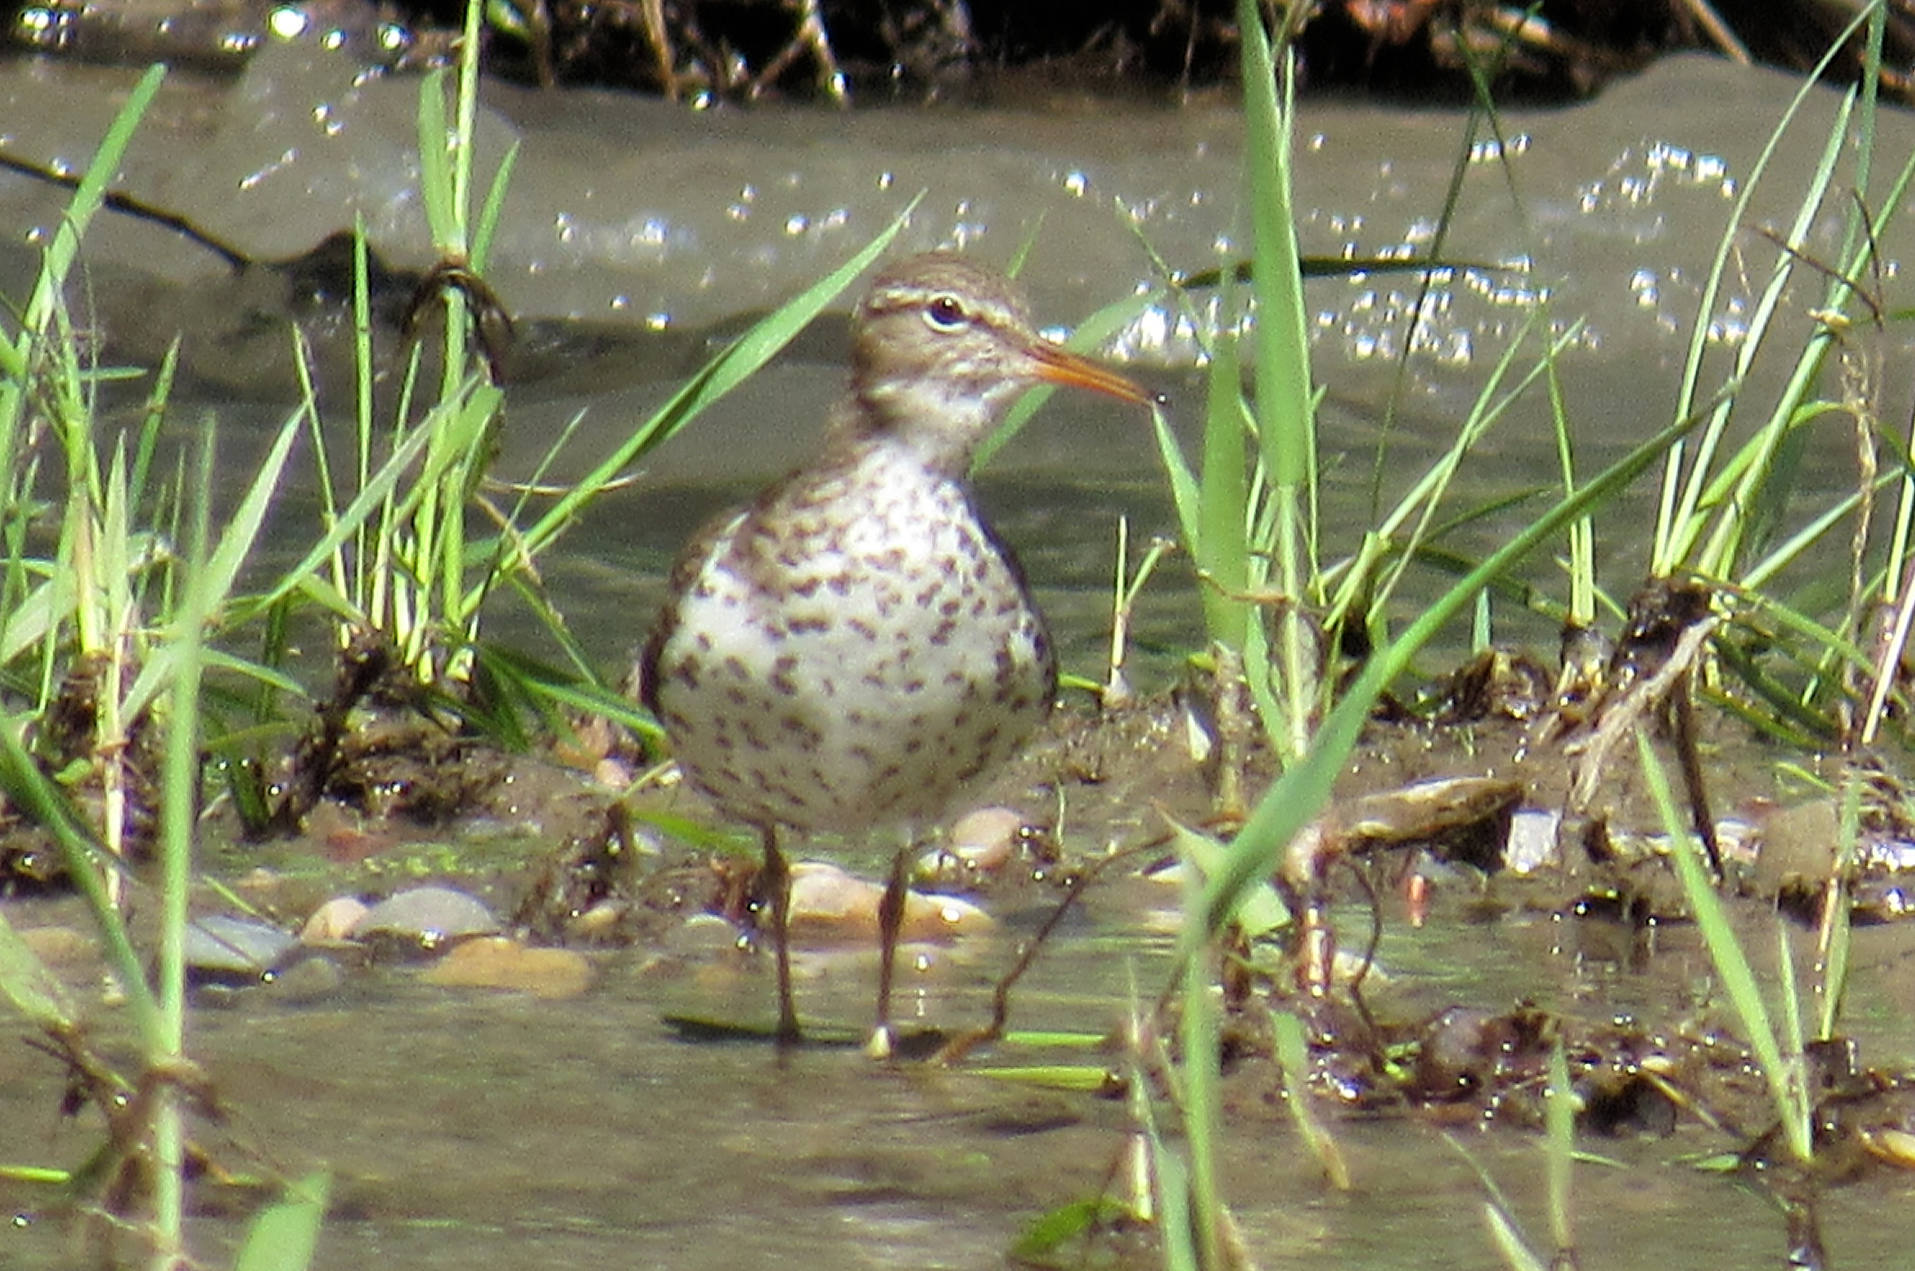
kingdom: Animalia
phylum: Chordata
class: Aves
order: Charadriiformes
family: Scolopacidae
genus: Actitis
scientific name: Actitis macularius
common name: Spotted sandpiper
